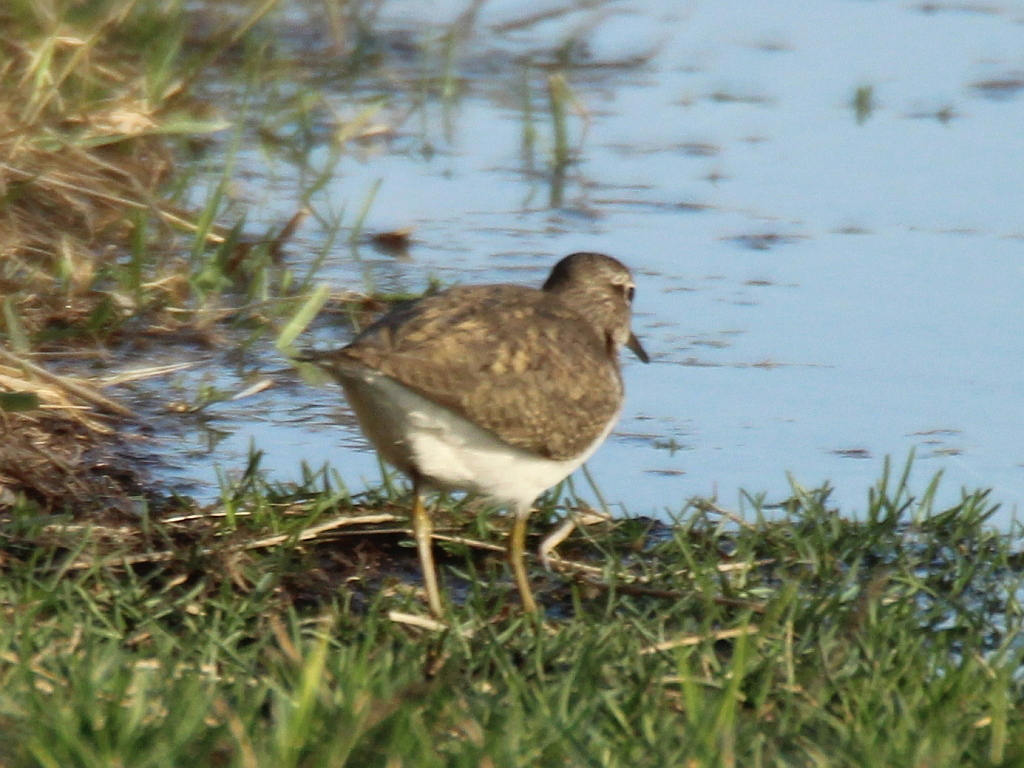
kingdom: Animalia
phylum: Chordata
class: Aves
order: Charadriiformes
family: Scolopacidae
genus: Actitis
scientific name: Actitis hypoleucos
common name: Common sandpiper
